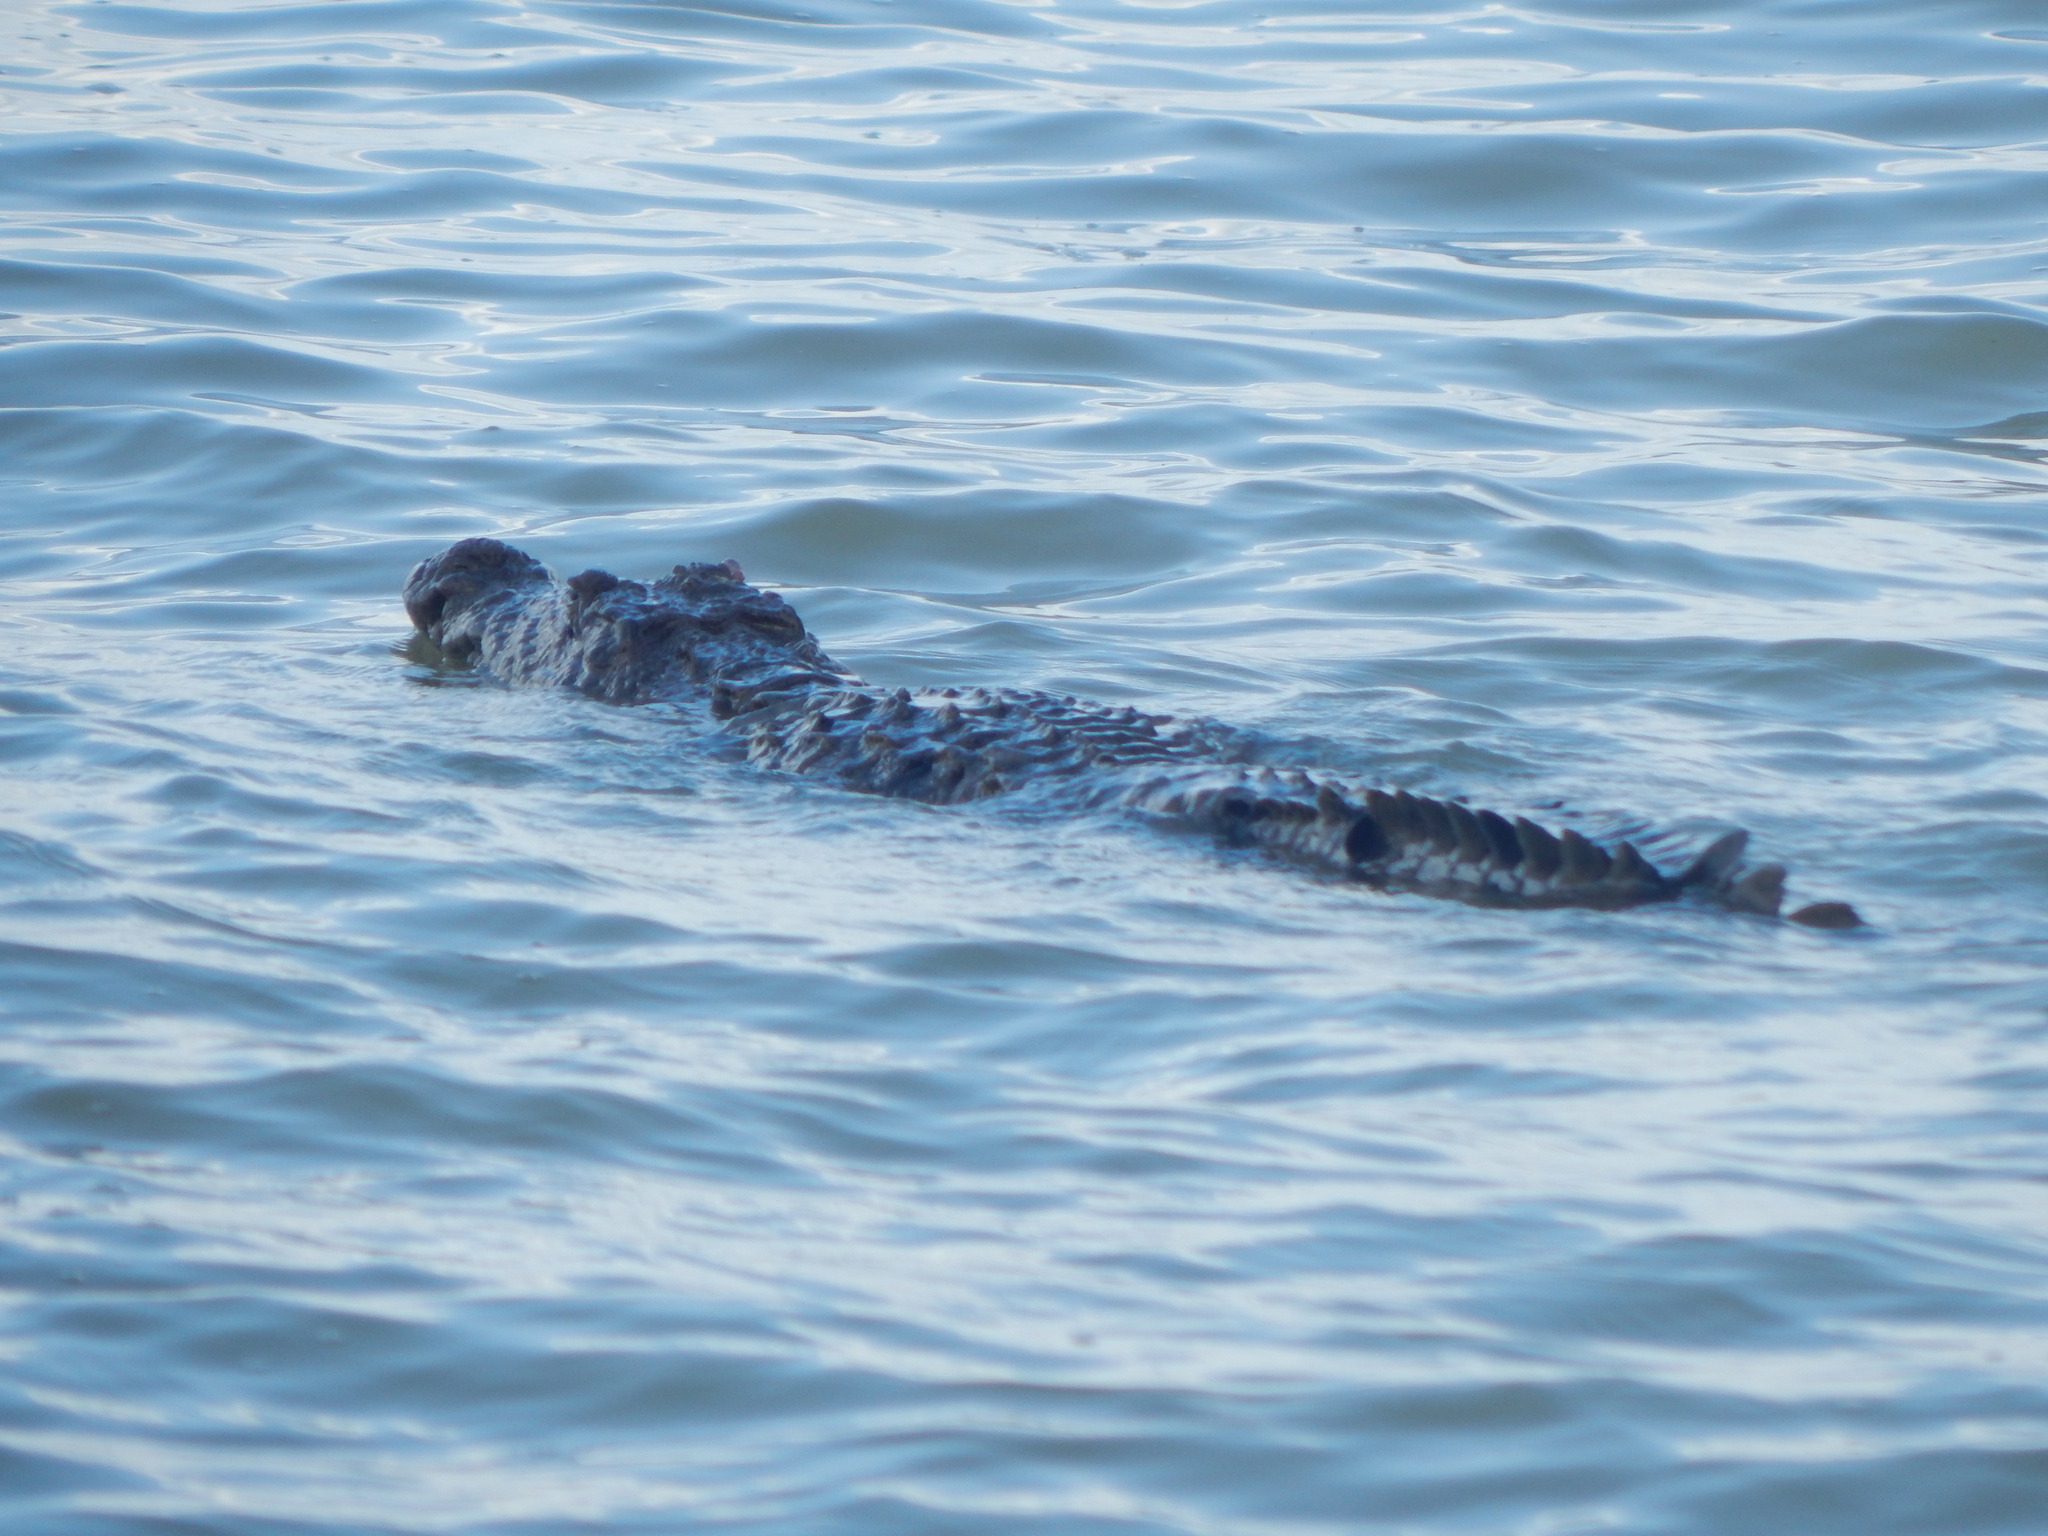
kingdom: Animalia
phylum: Chordata
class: Crocodylia
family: Crocodylidae
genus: Crocodylus
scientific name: Crocodylus niloticus
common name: Nile crocodile
